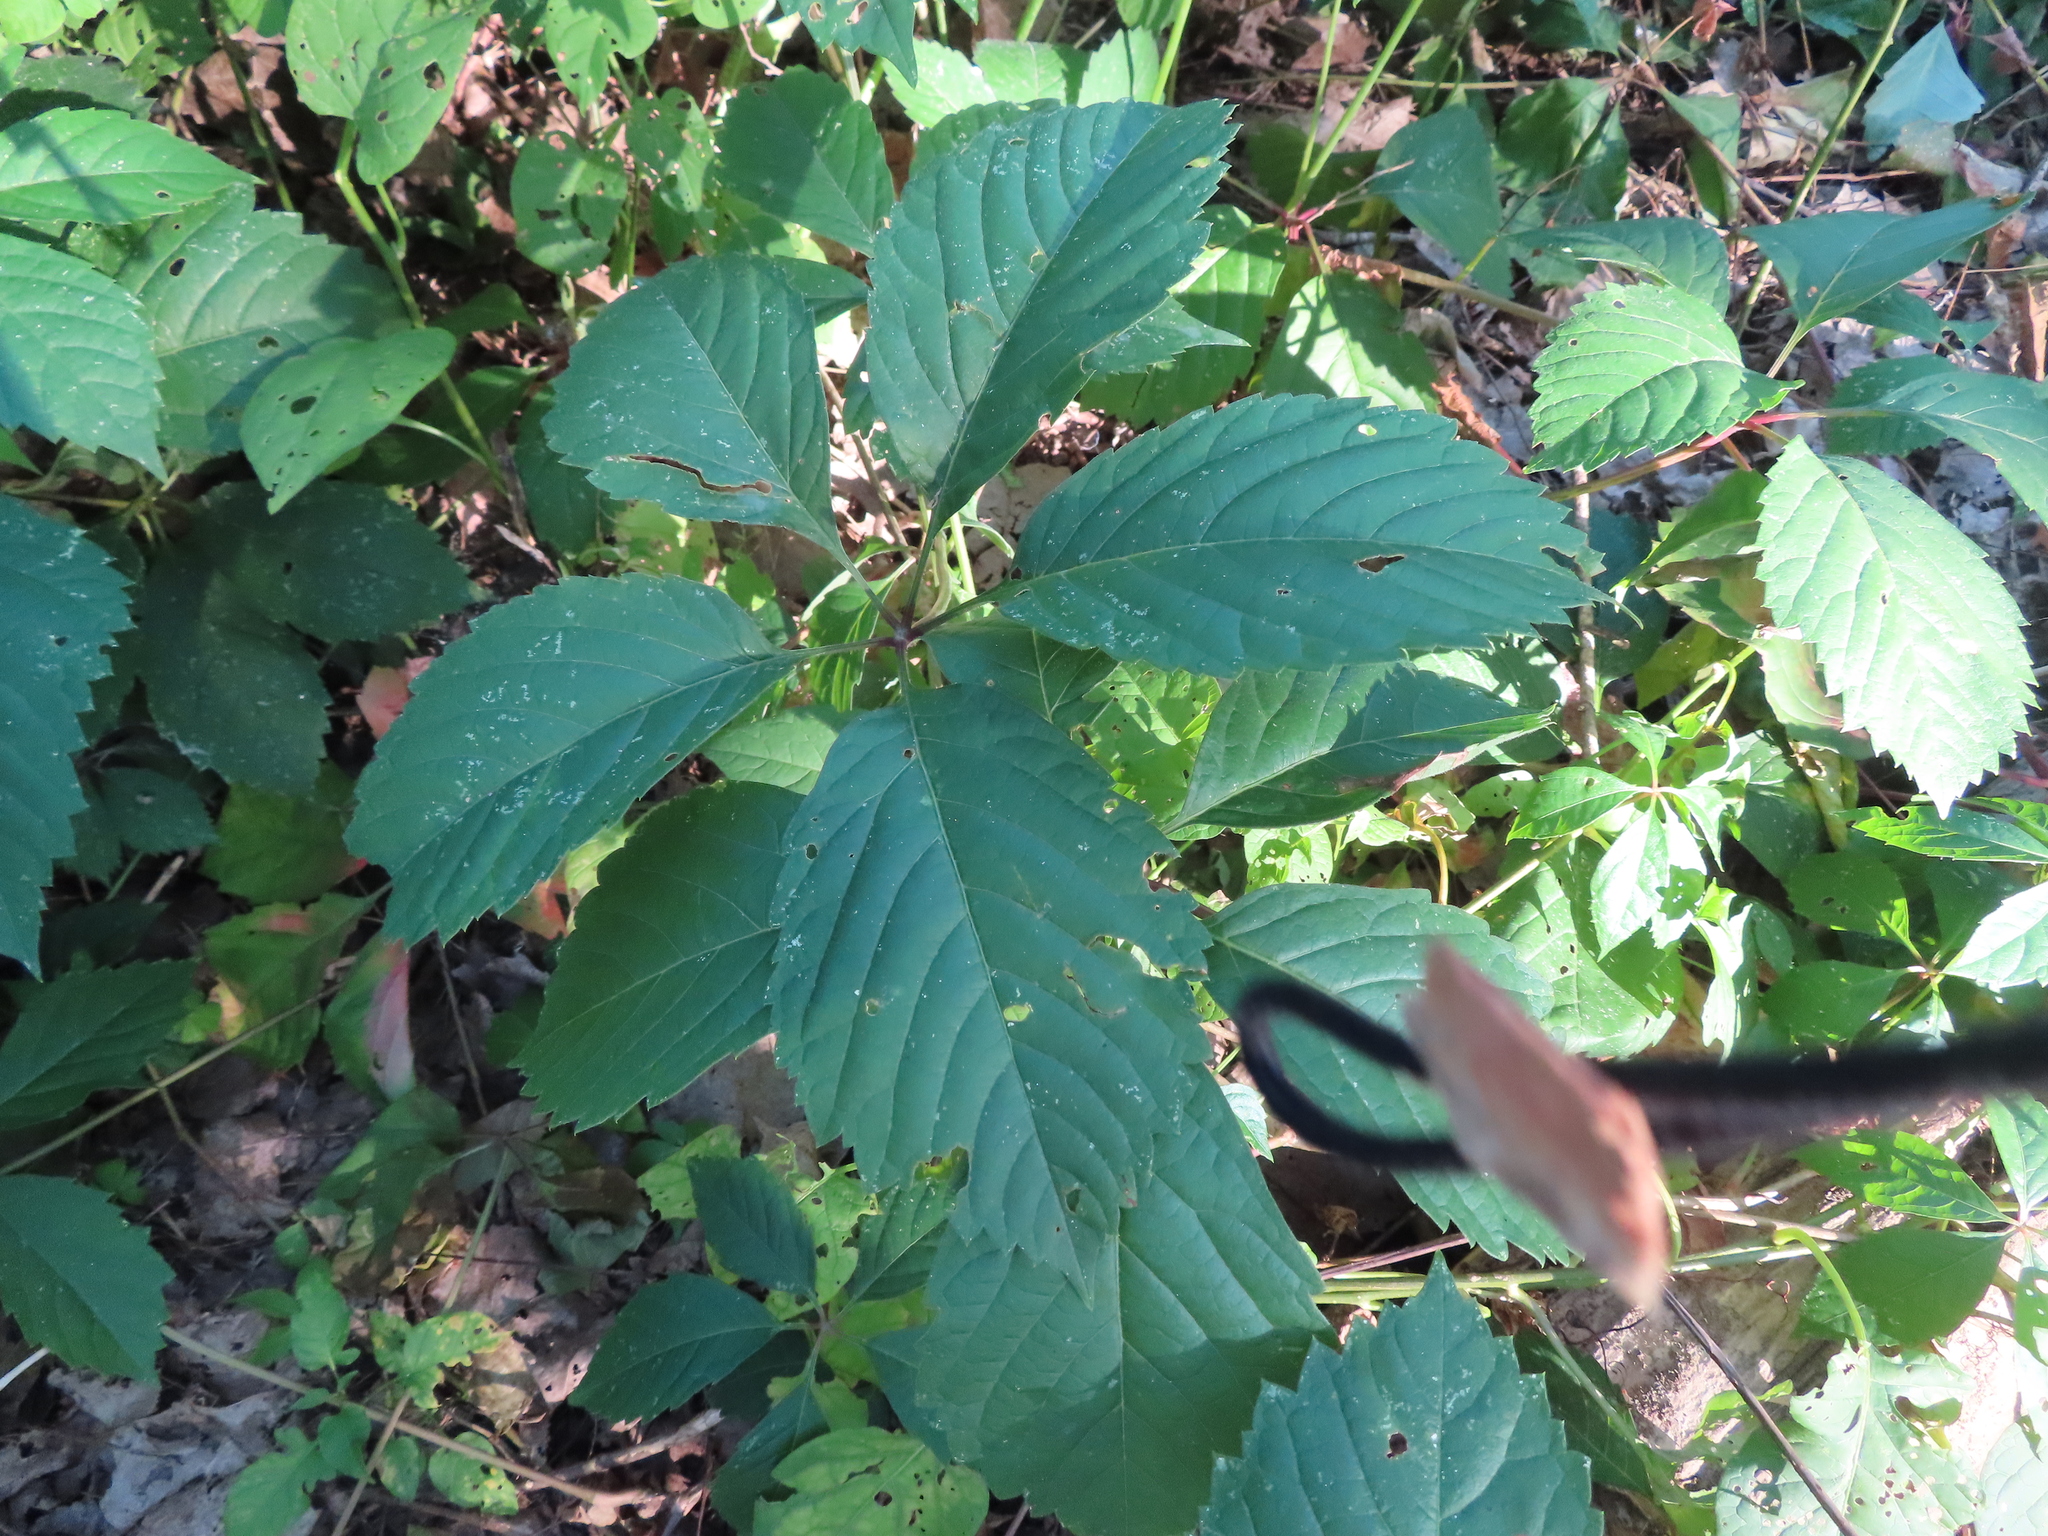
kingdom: Plantae
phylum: Tracheophyta
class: Magnoliopsida
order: Vitales
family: Vitaceae
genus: Parthenocissus
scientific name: Parthenocissus inserta
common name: False virginia-creeper
